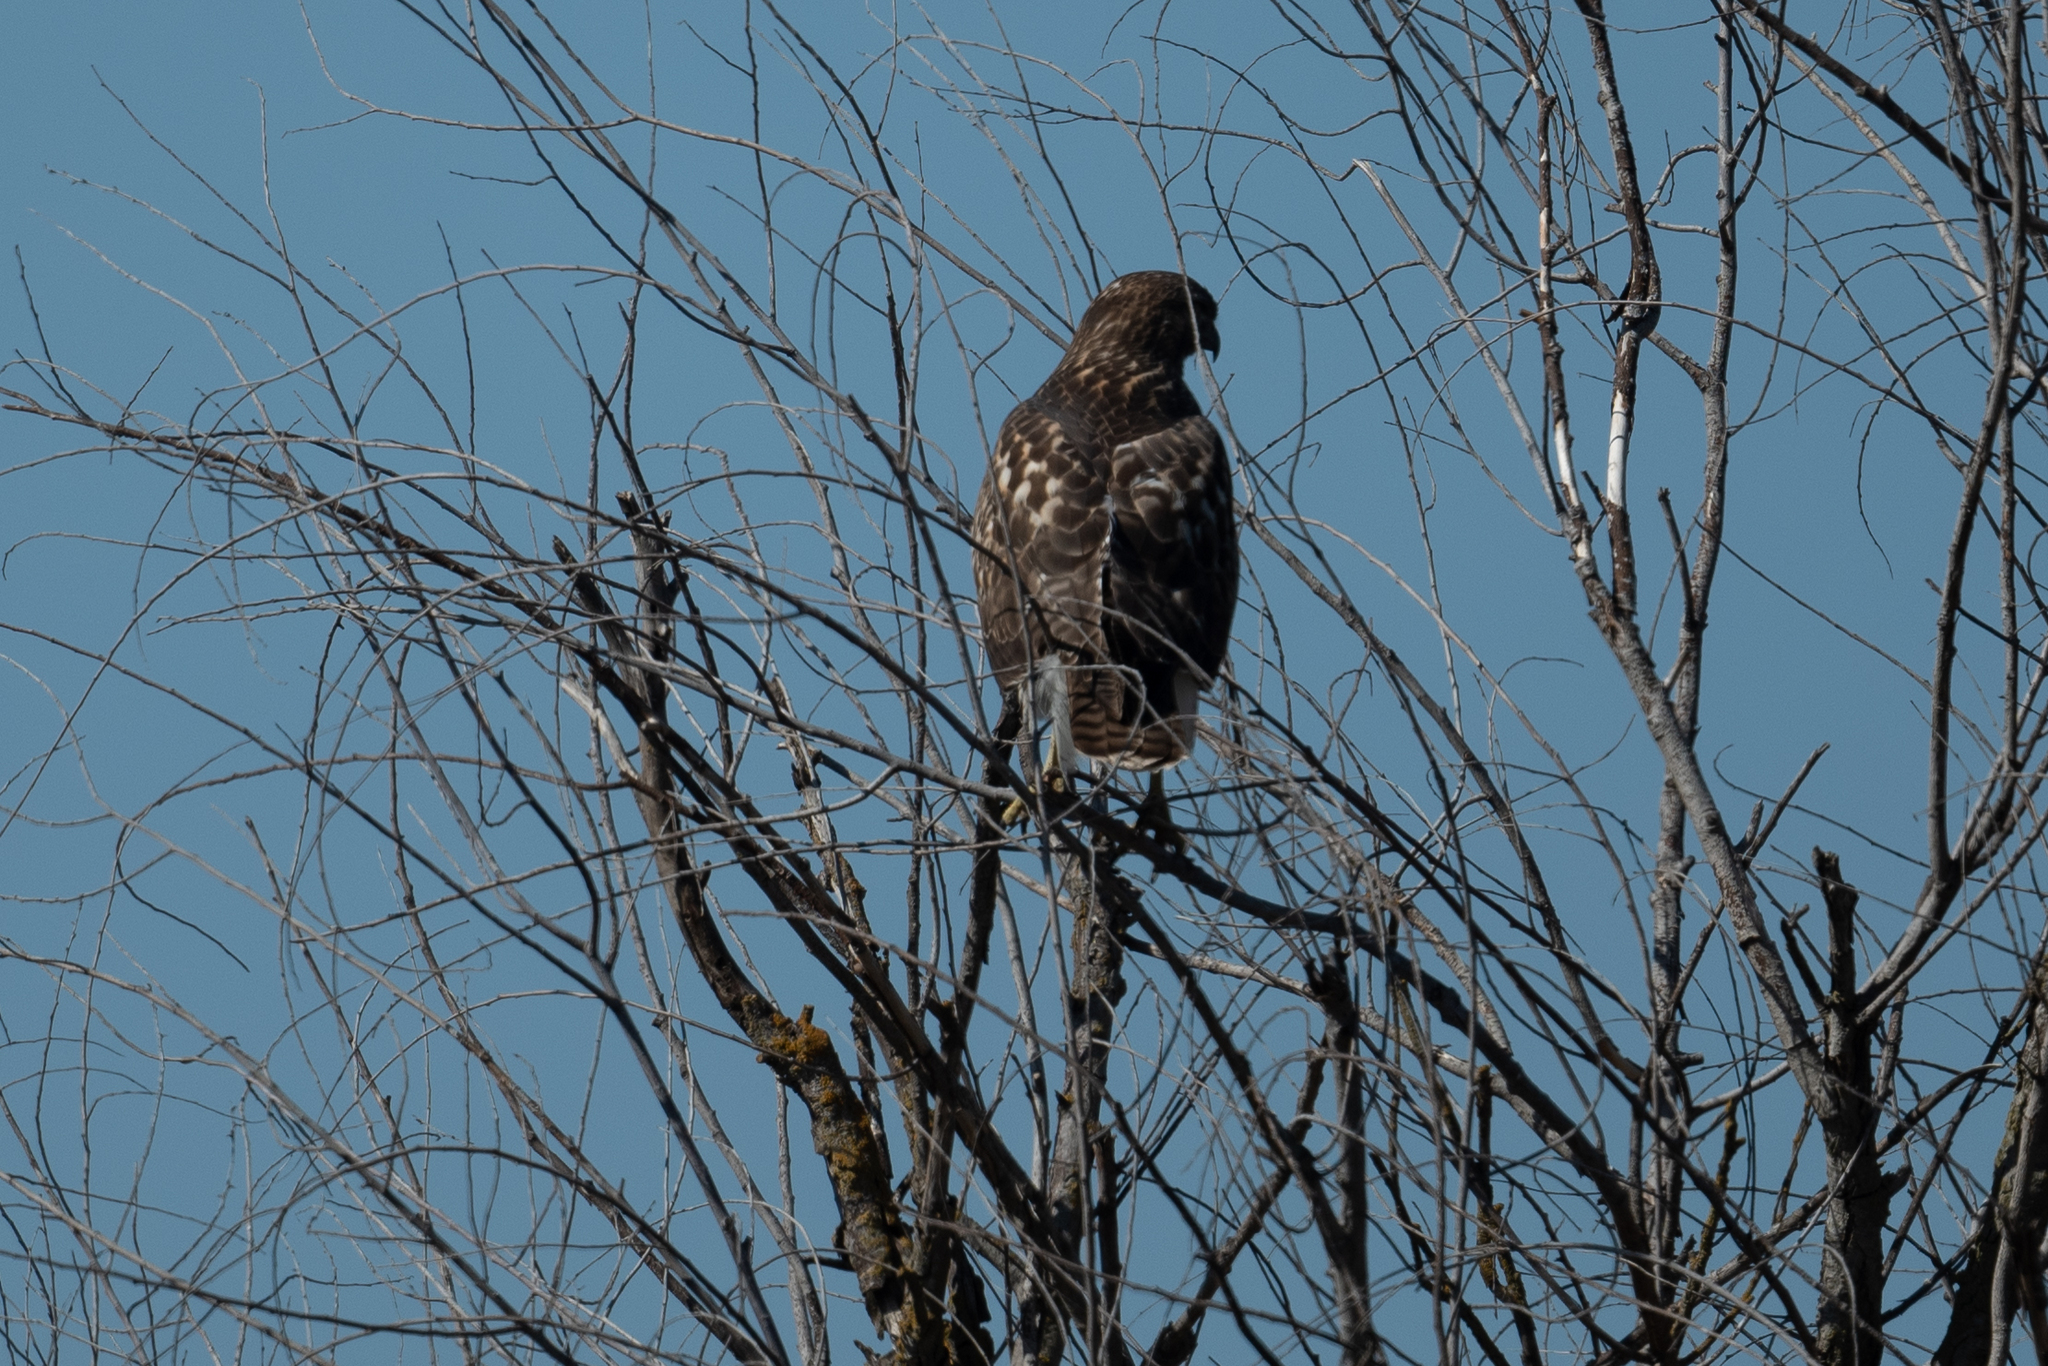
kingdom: Animalia
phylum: Chordata
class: Aves
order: Accipitriformes
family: Accipitridae
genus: Buteo
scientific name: Buteo jamaicensis
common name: Red-tailed hawk
